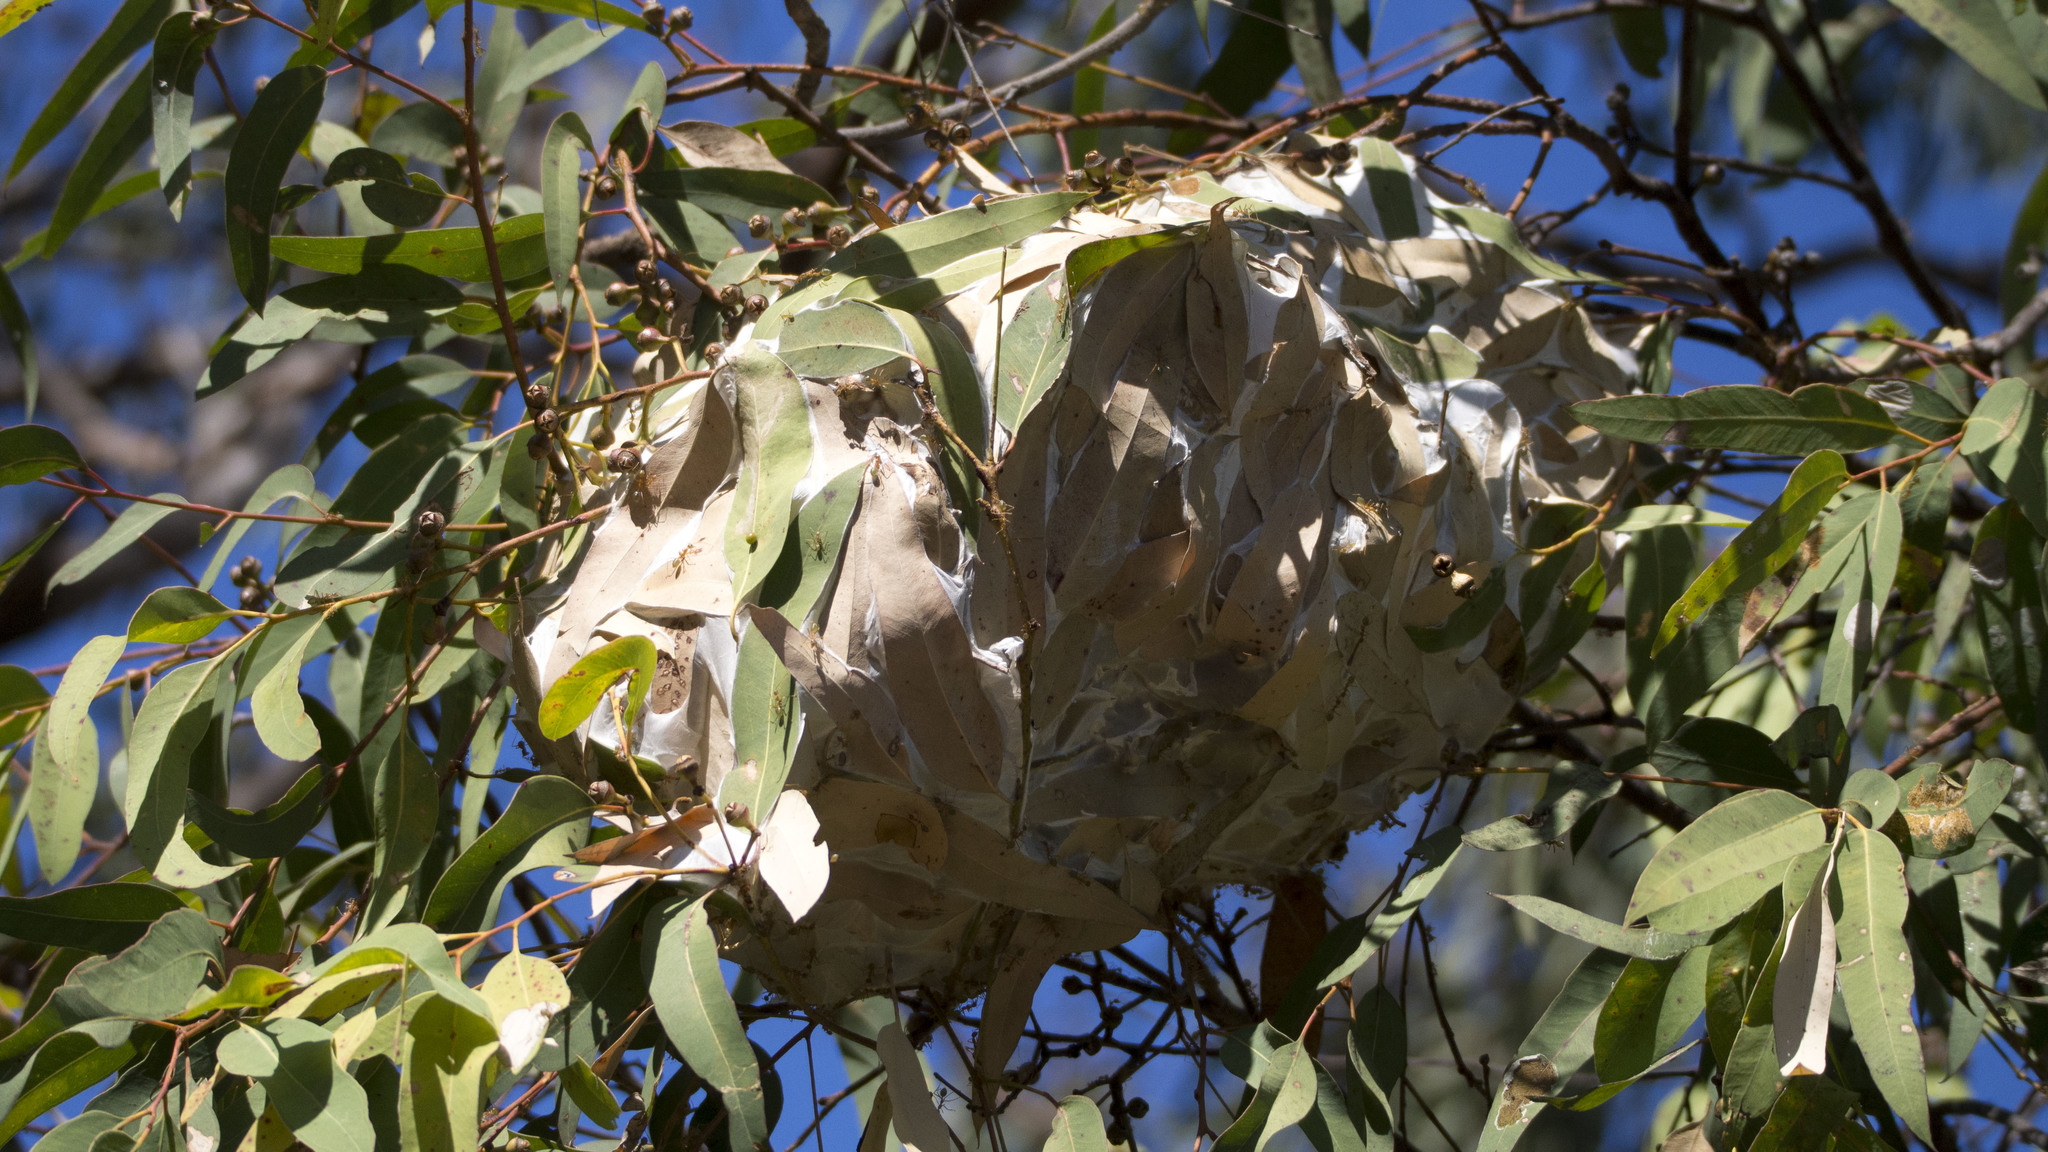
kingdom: Animalia
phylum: Arthropoda
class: Insecta
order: Hymenoptera
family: Formicidae
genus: Oecophylla
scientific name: Oecophylla smaragdina
